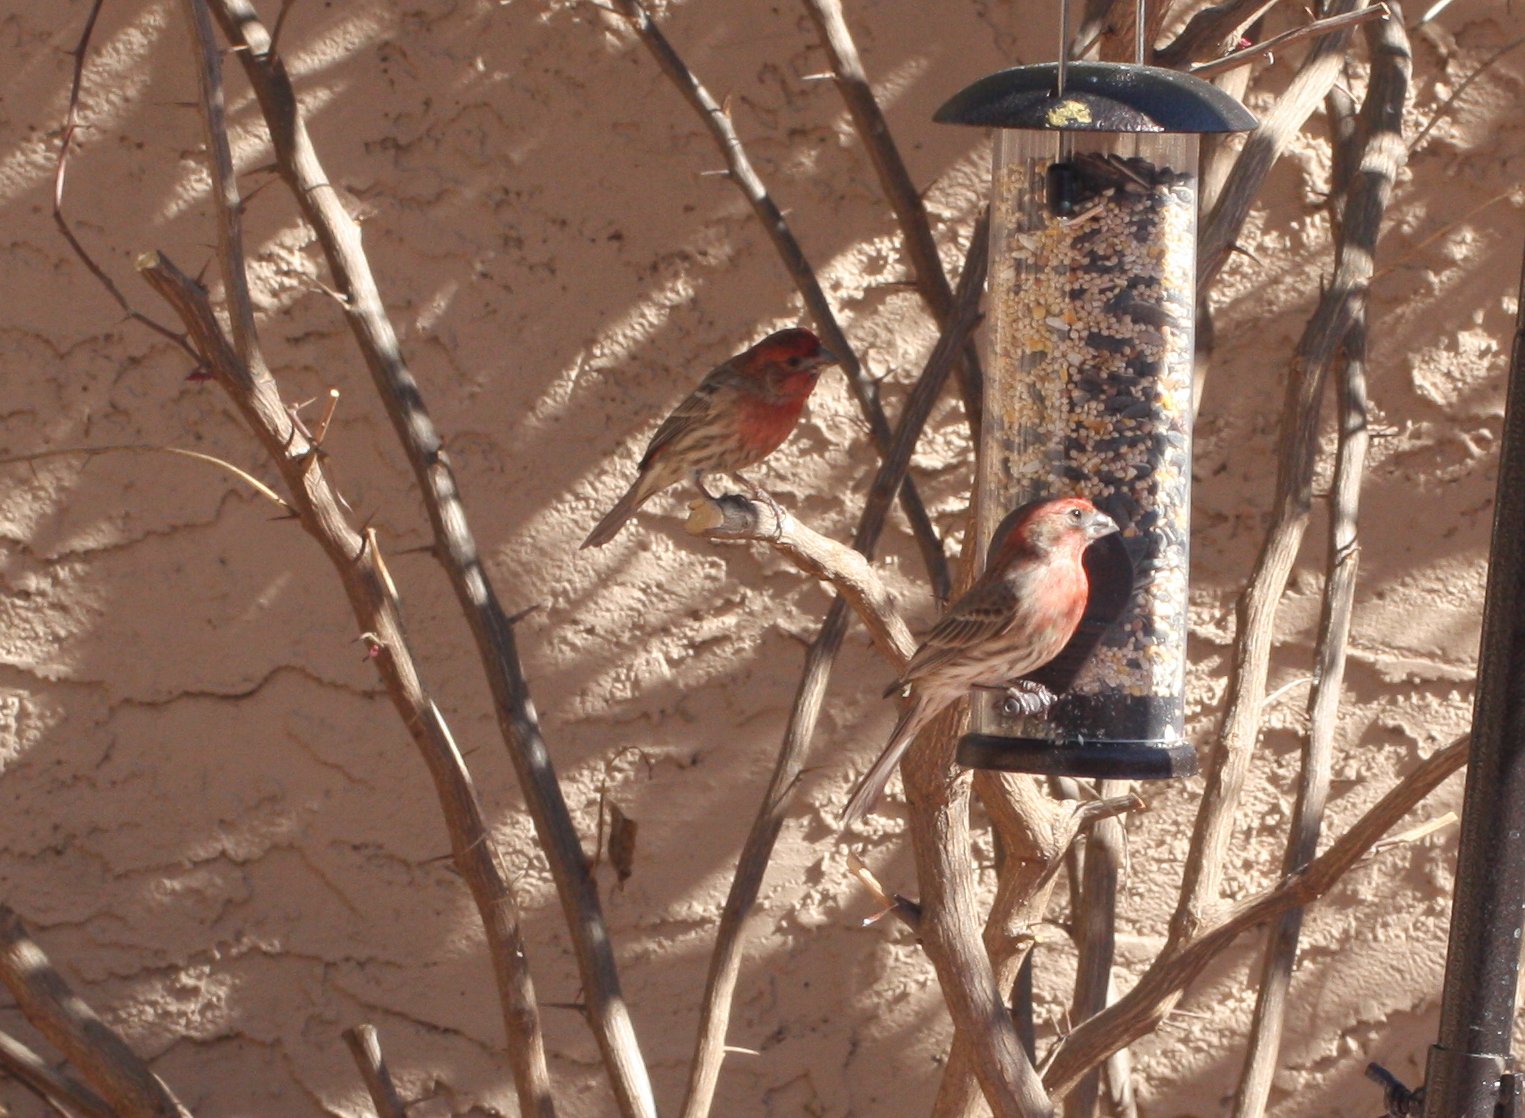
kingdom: Animalia
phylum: Chordata
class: Aves
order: Passeriformes
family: Fringillidae
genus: Haemorhous
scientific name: Haemorhous mexicanus
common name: House finch
